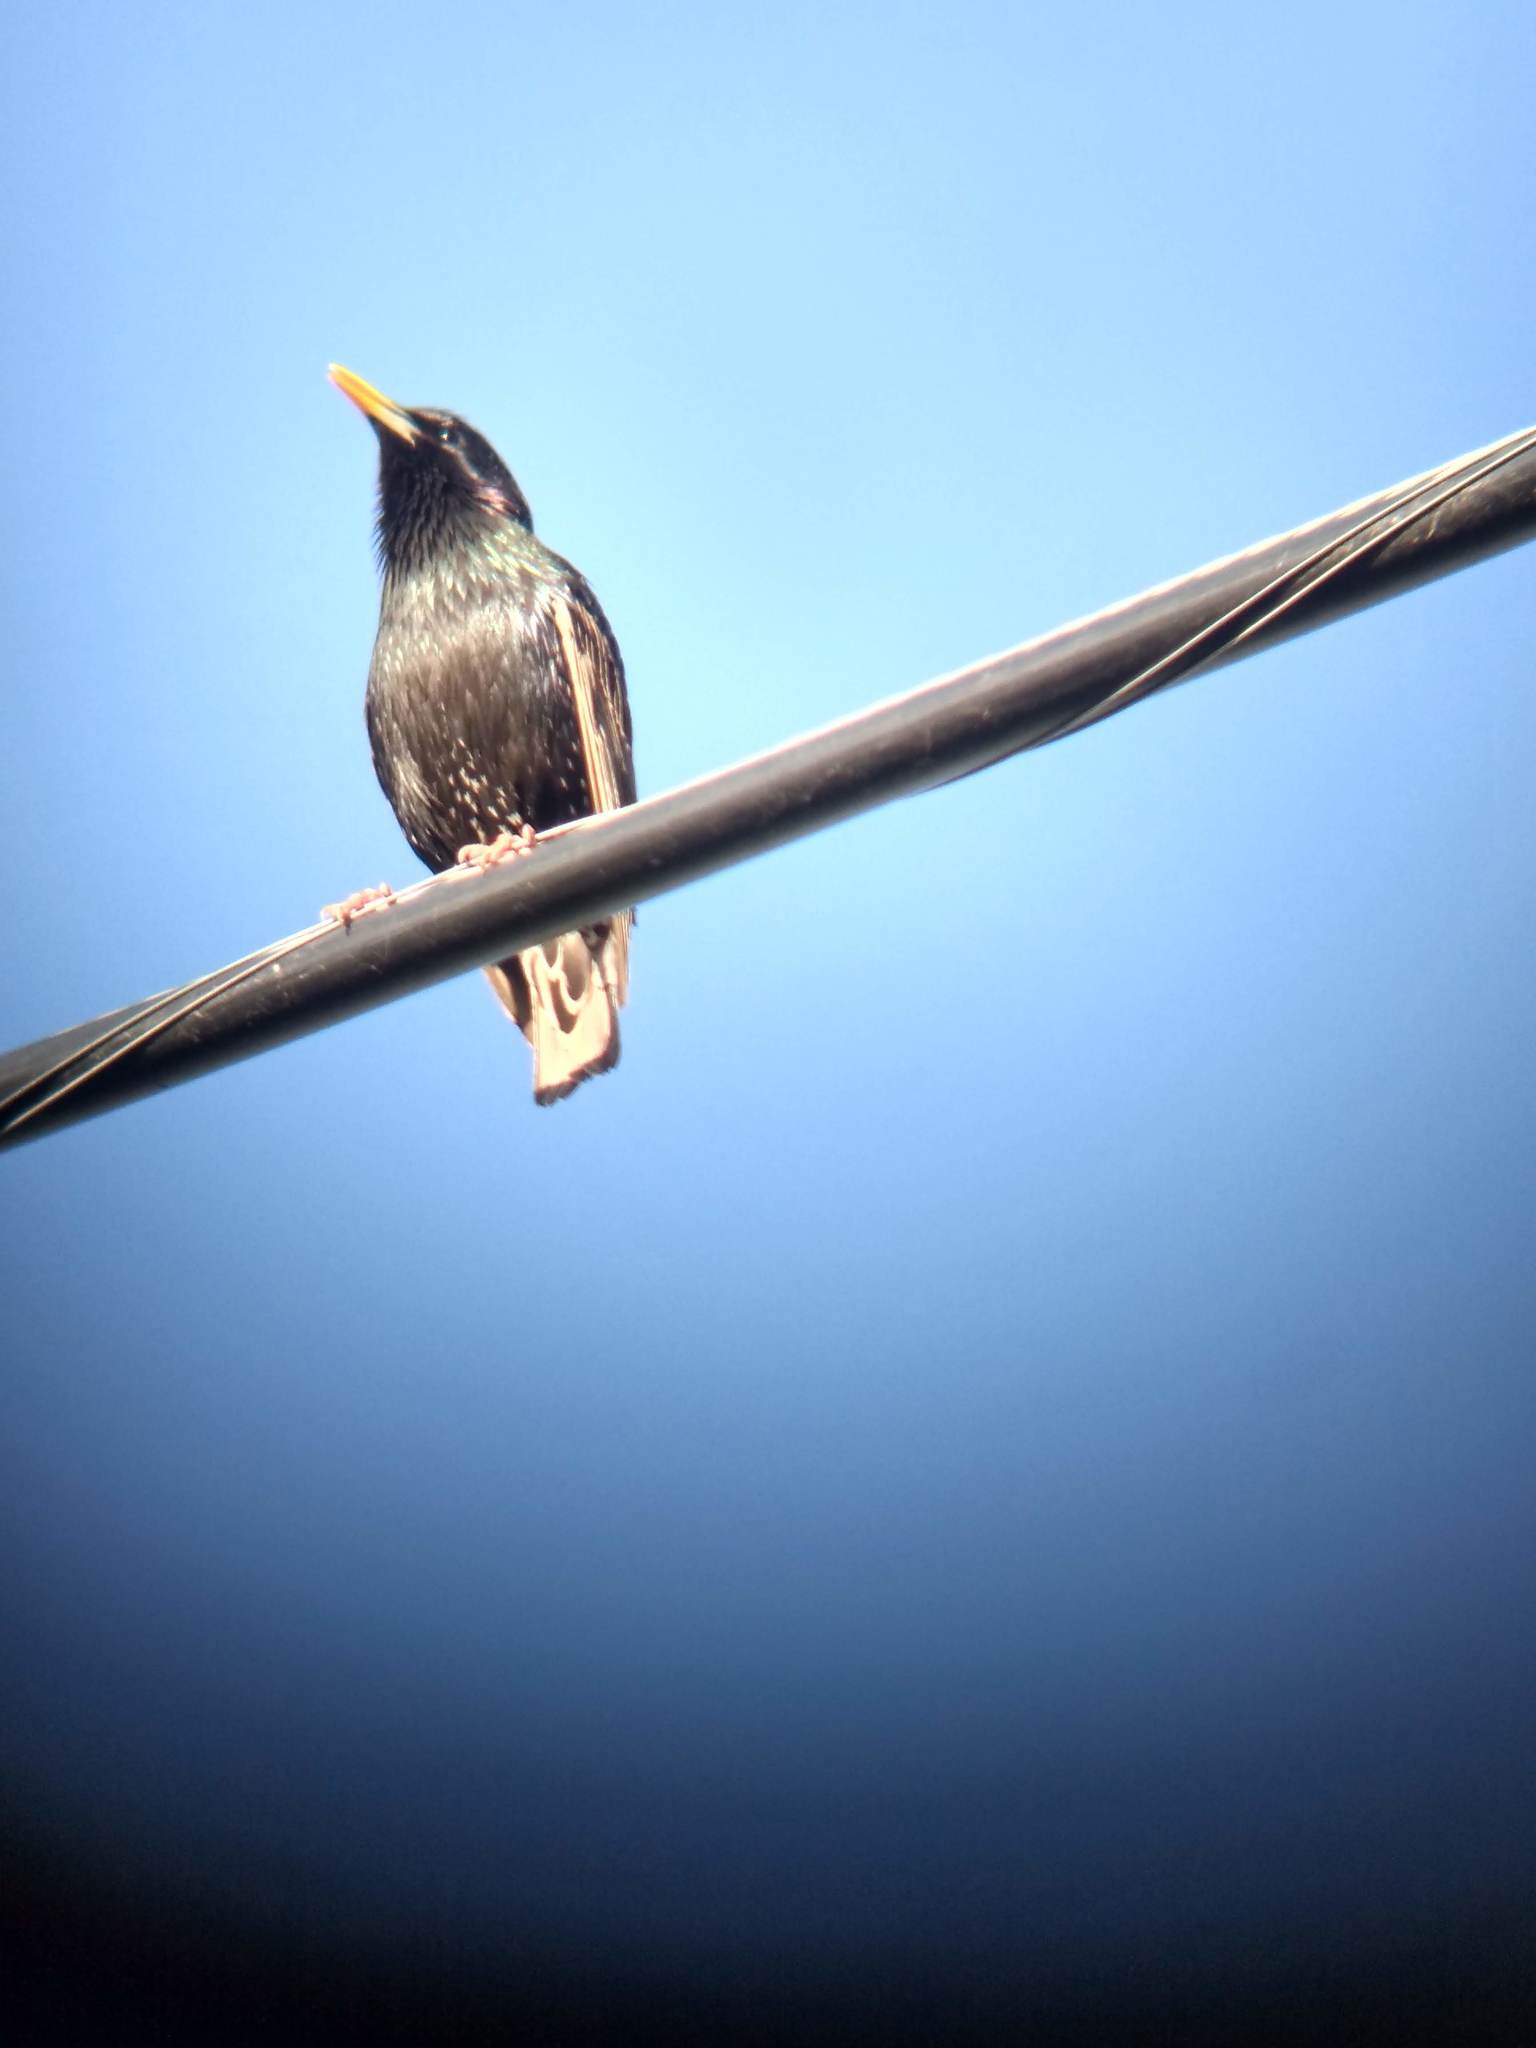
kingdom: Animalia
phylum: Chordata
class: Aves
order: Passeriformes
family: Sturnidae
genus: Sturnus
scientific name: Sturnus vulgaris
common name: Common starling
